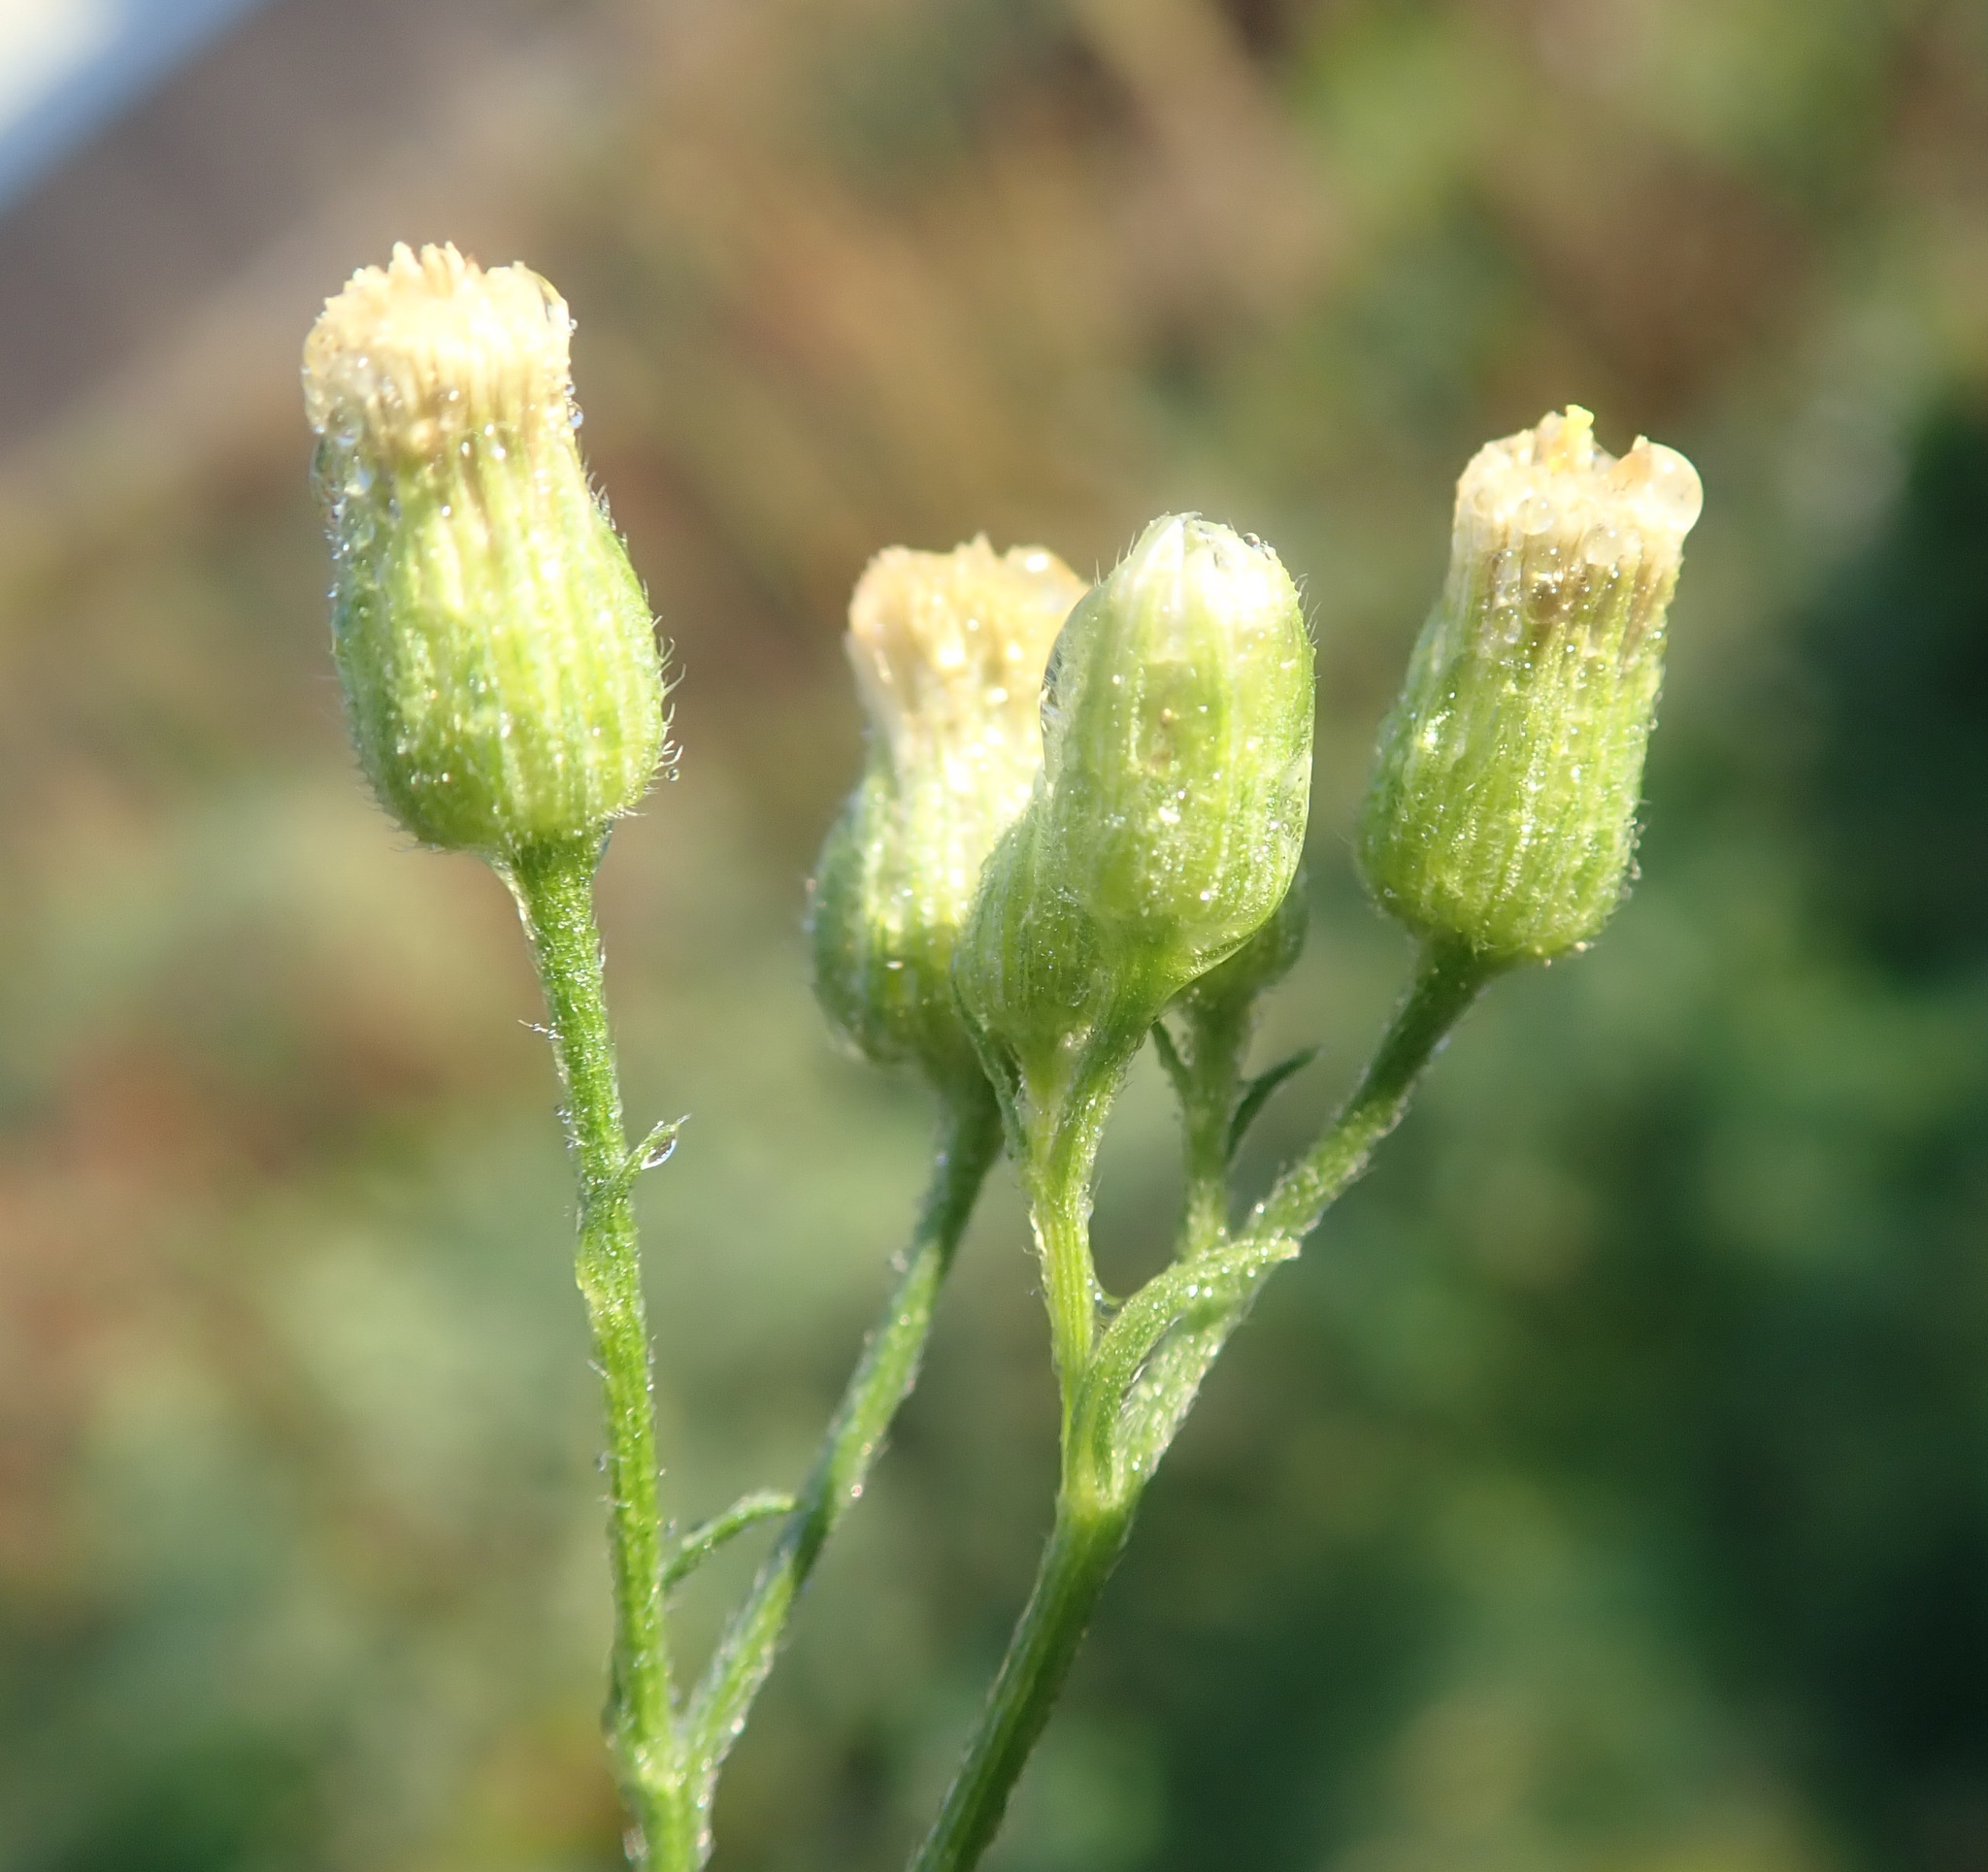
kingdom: Plantae
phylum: Tracheophyta
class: Magnoliopsida
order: Asterales
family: Asteraceae
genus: Erigeron
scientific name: Erigeron sumatrensis
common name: Daisy
